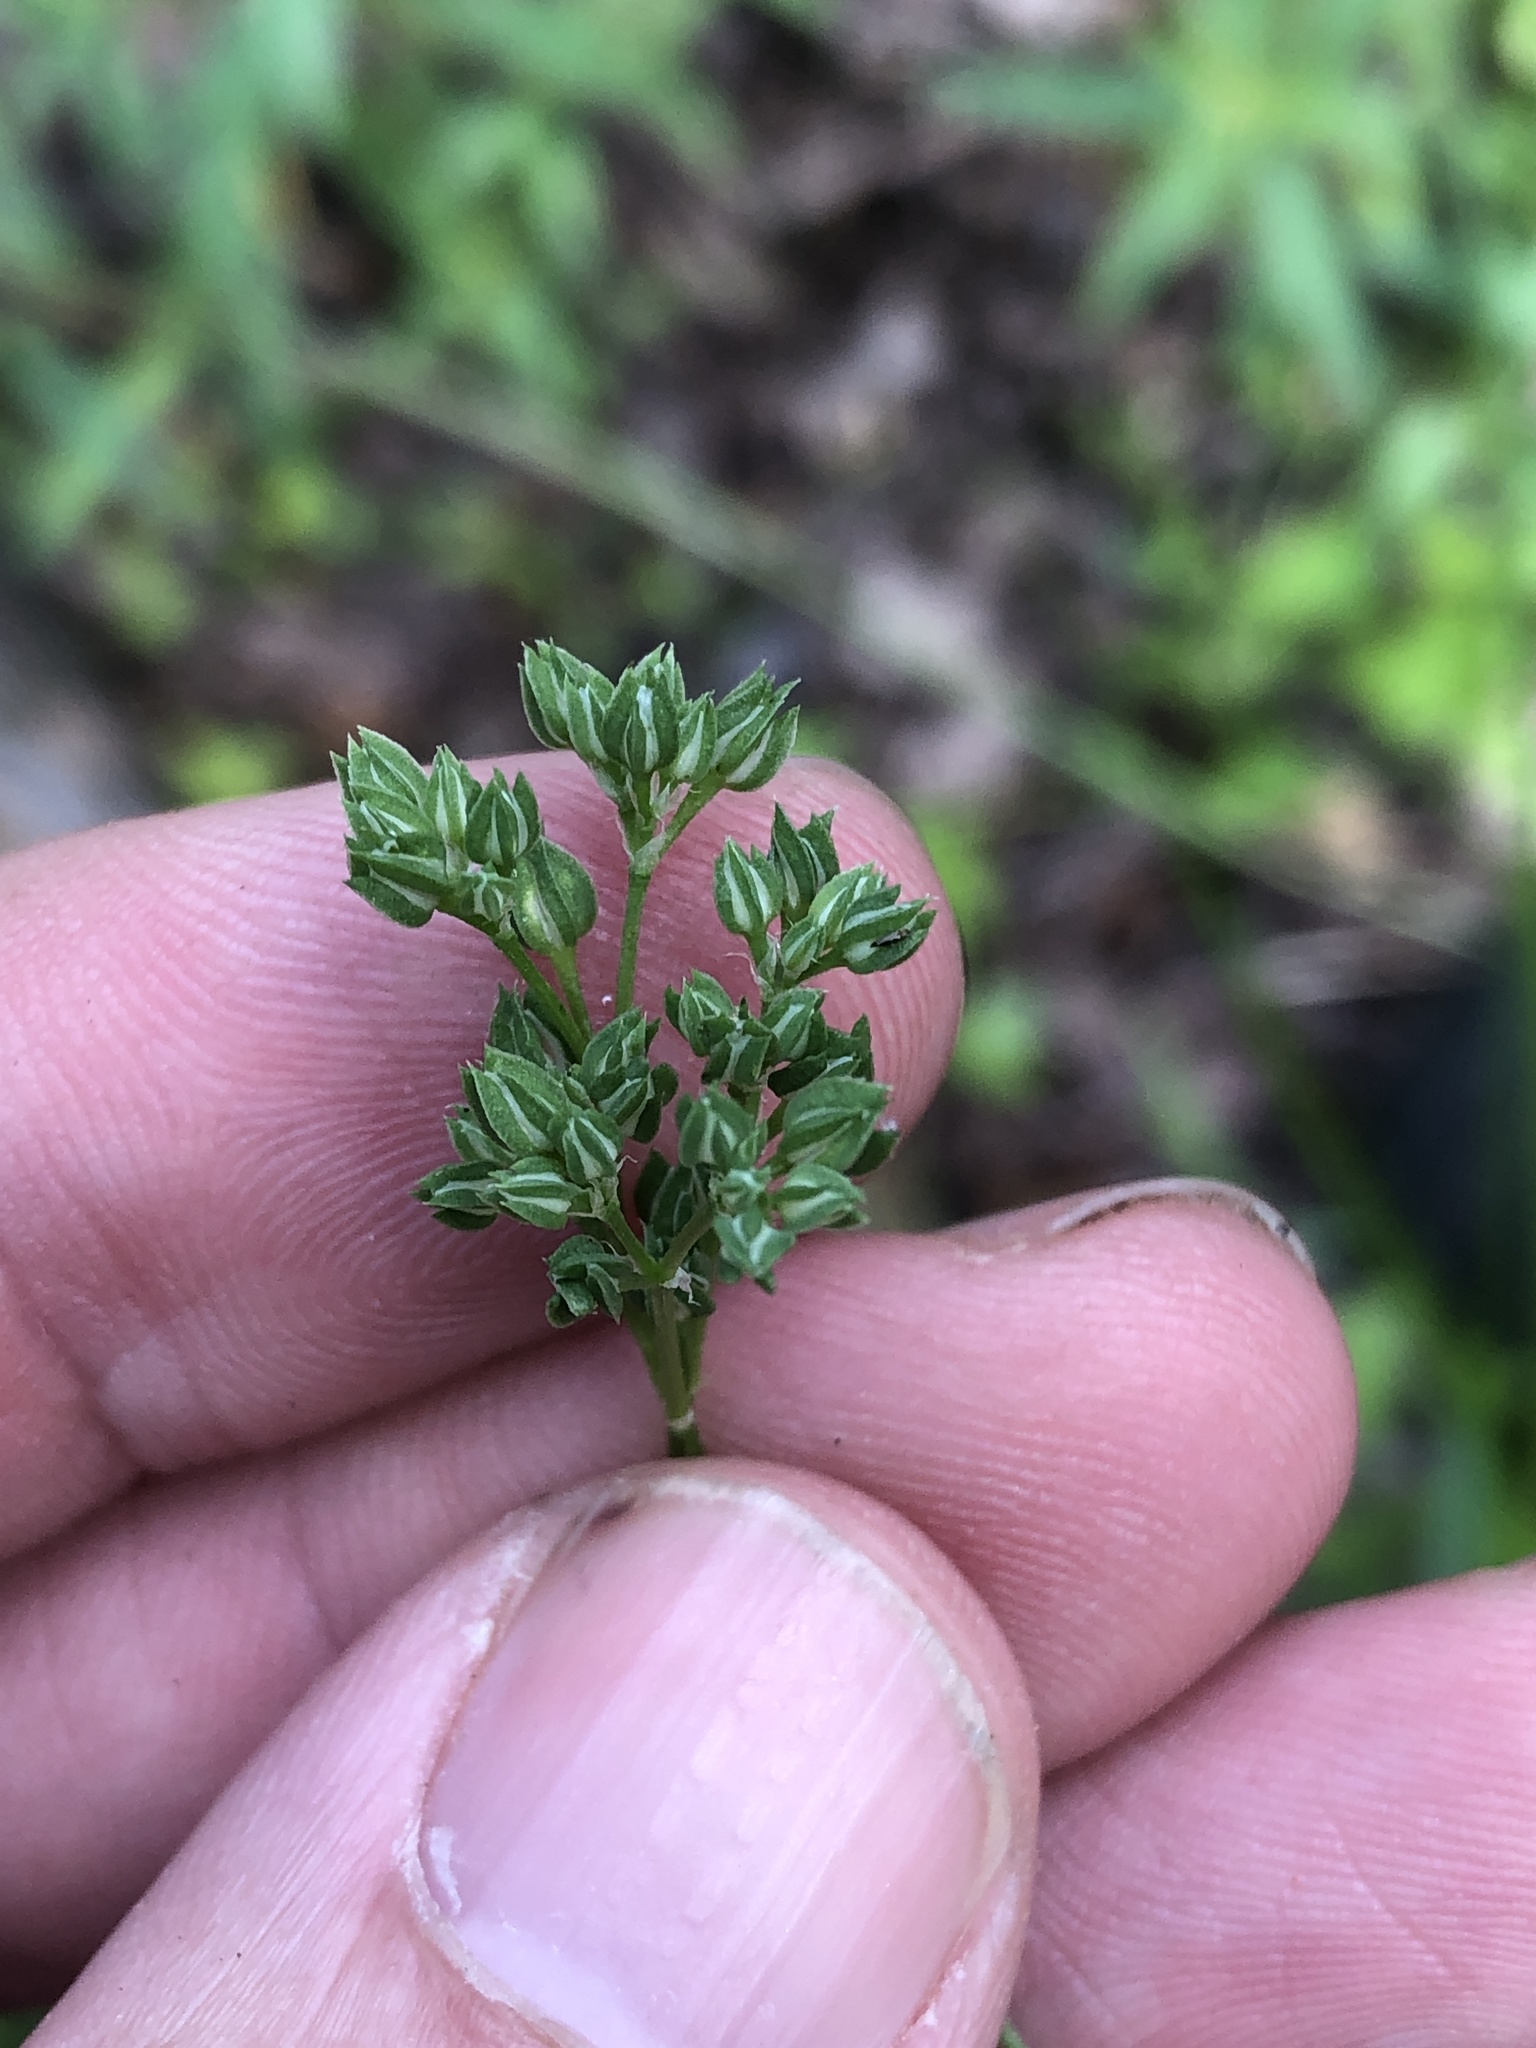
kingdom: Plantae
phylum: Tracheophyta
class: Magnoliopsida
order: Caryophyllales
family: Caryophyllaceae
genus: Polycarpon
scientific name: Polycarpon tetraphyllum
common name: Four-leaved all-seed
